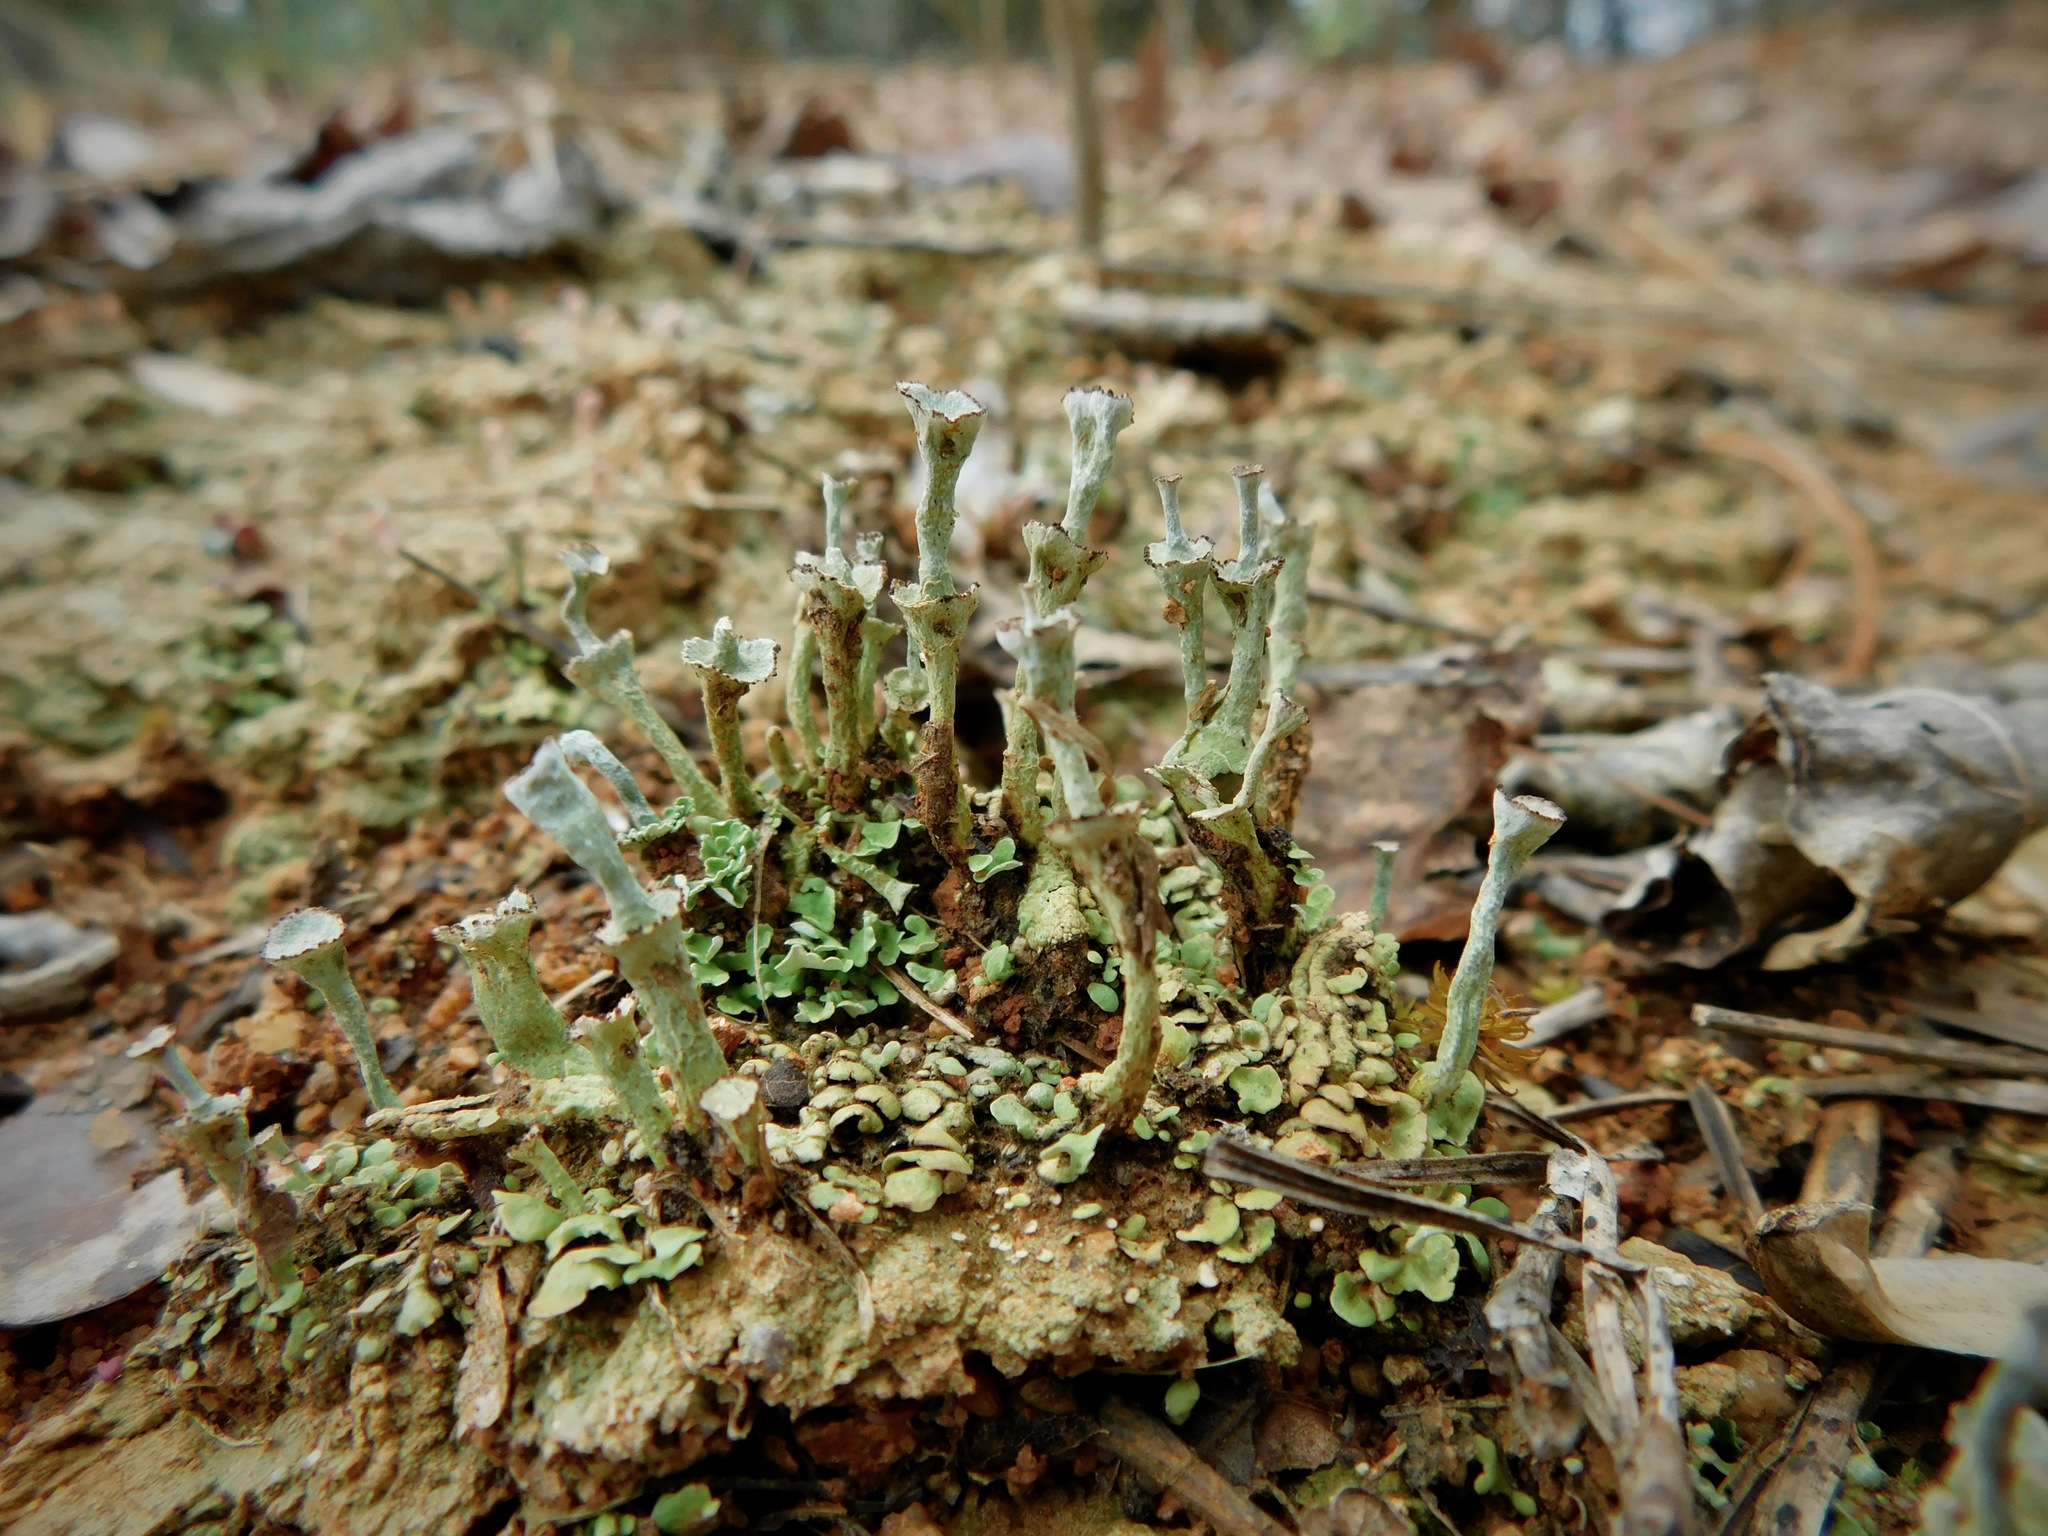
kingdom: Fungi
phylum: Ascomycota
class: Lecanoromycetes
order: Lecanorales
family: Cladoniaceae
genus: Cladonia
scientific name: Cladonia cervicornis
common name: Browned pixie-cup lichen
